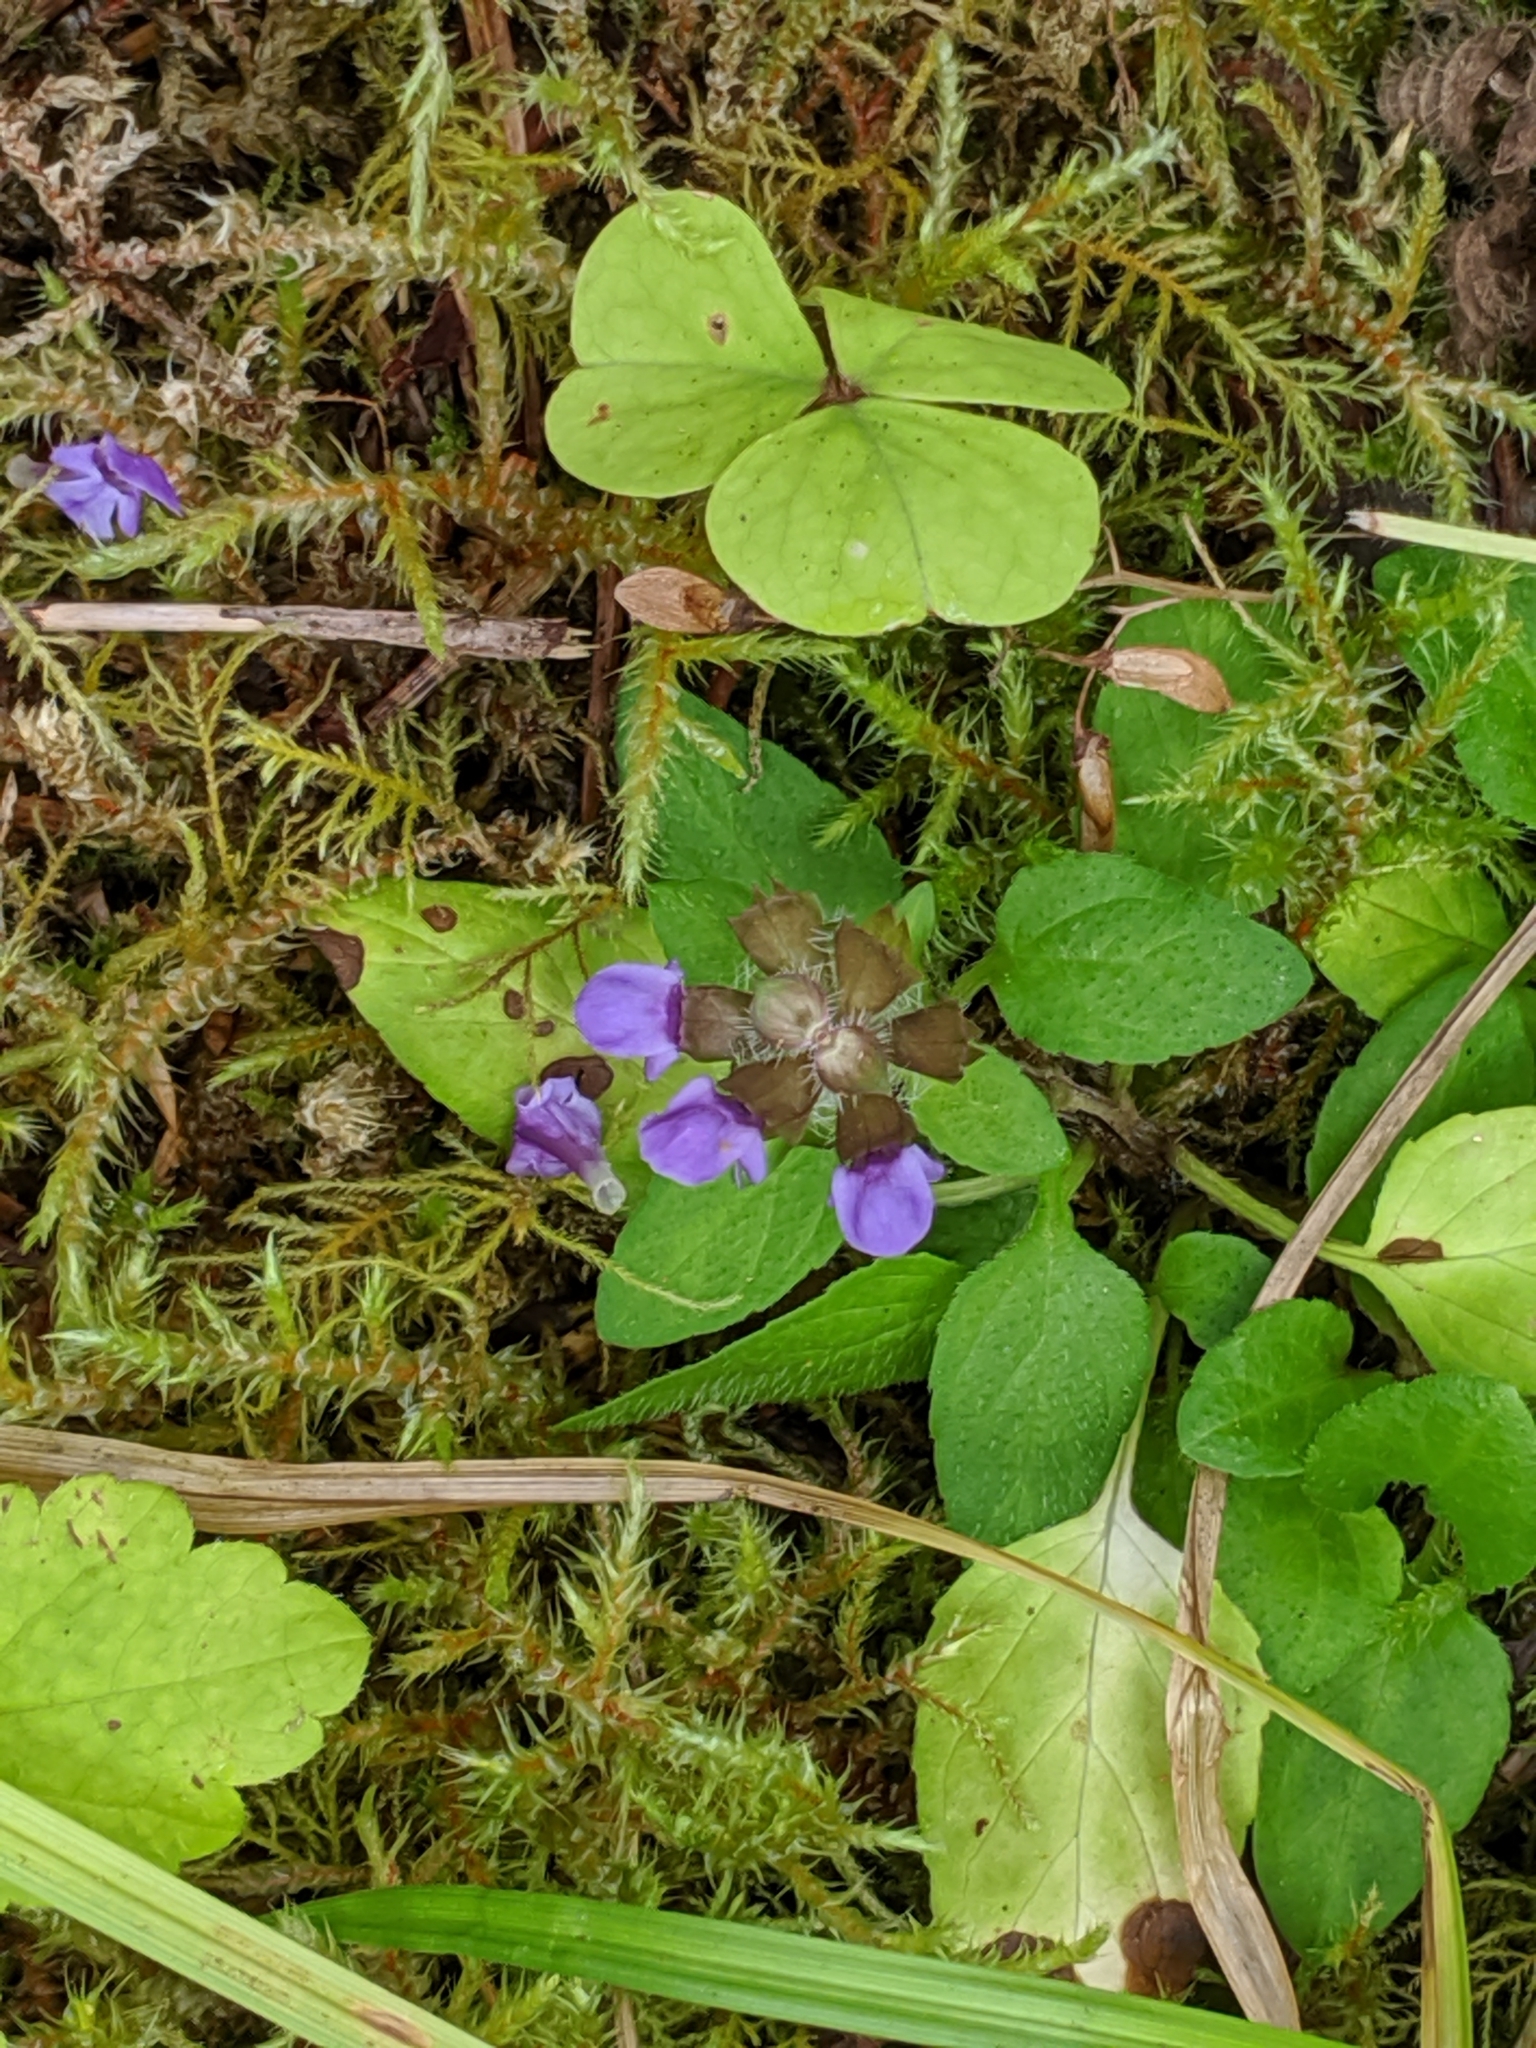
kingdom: Plantae
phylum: Tracheophyta
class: Magnoliopsida
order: Lamiales
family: Lamiaceae
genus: Prunella
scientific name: Prunella vulgaris
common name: Heal-all
